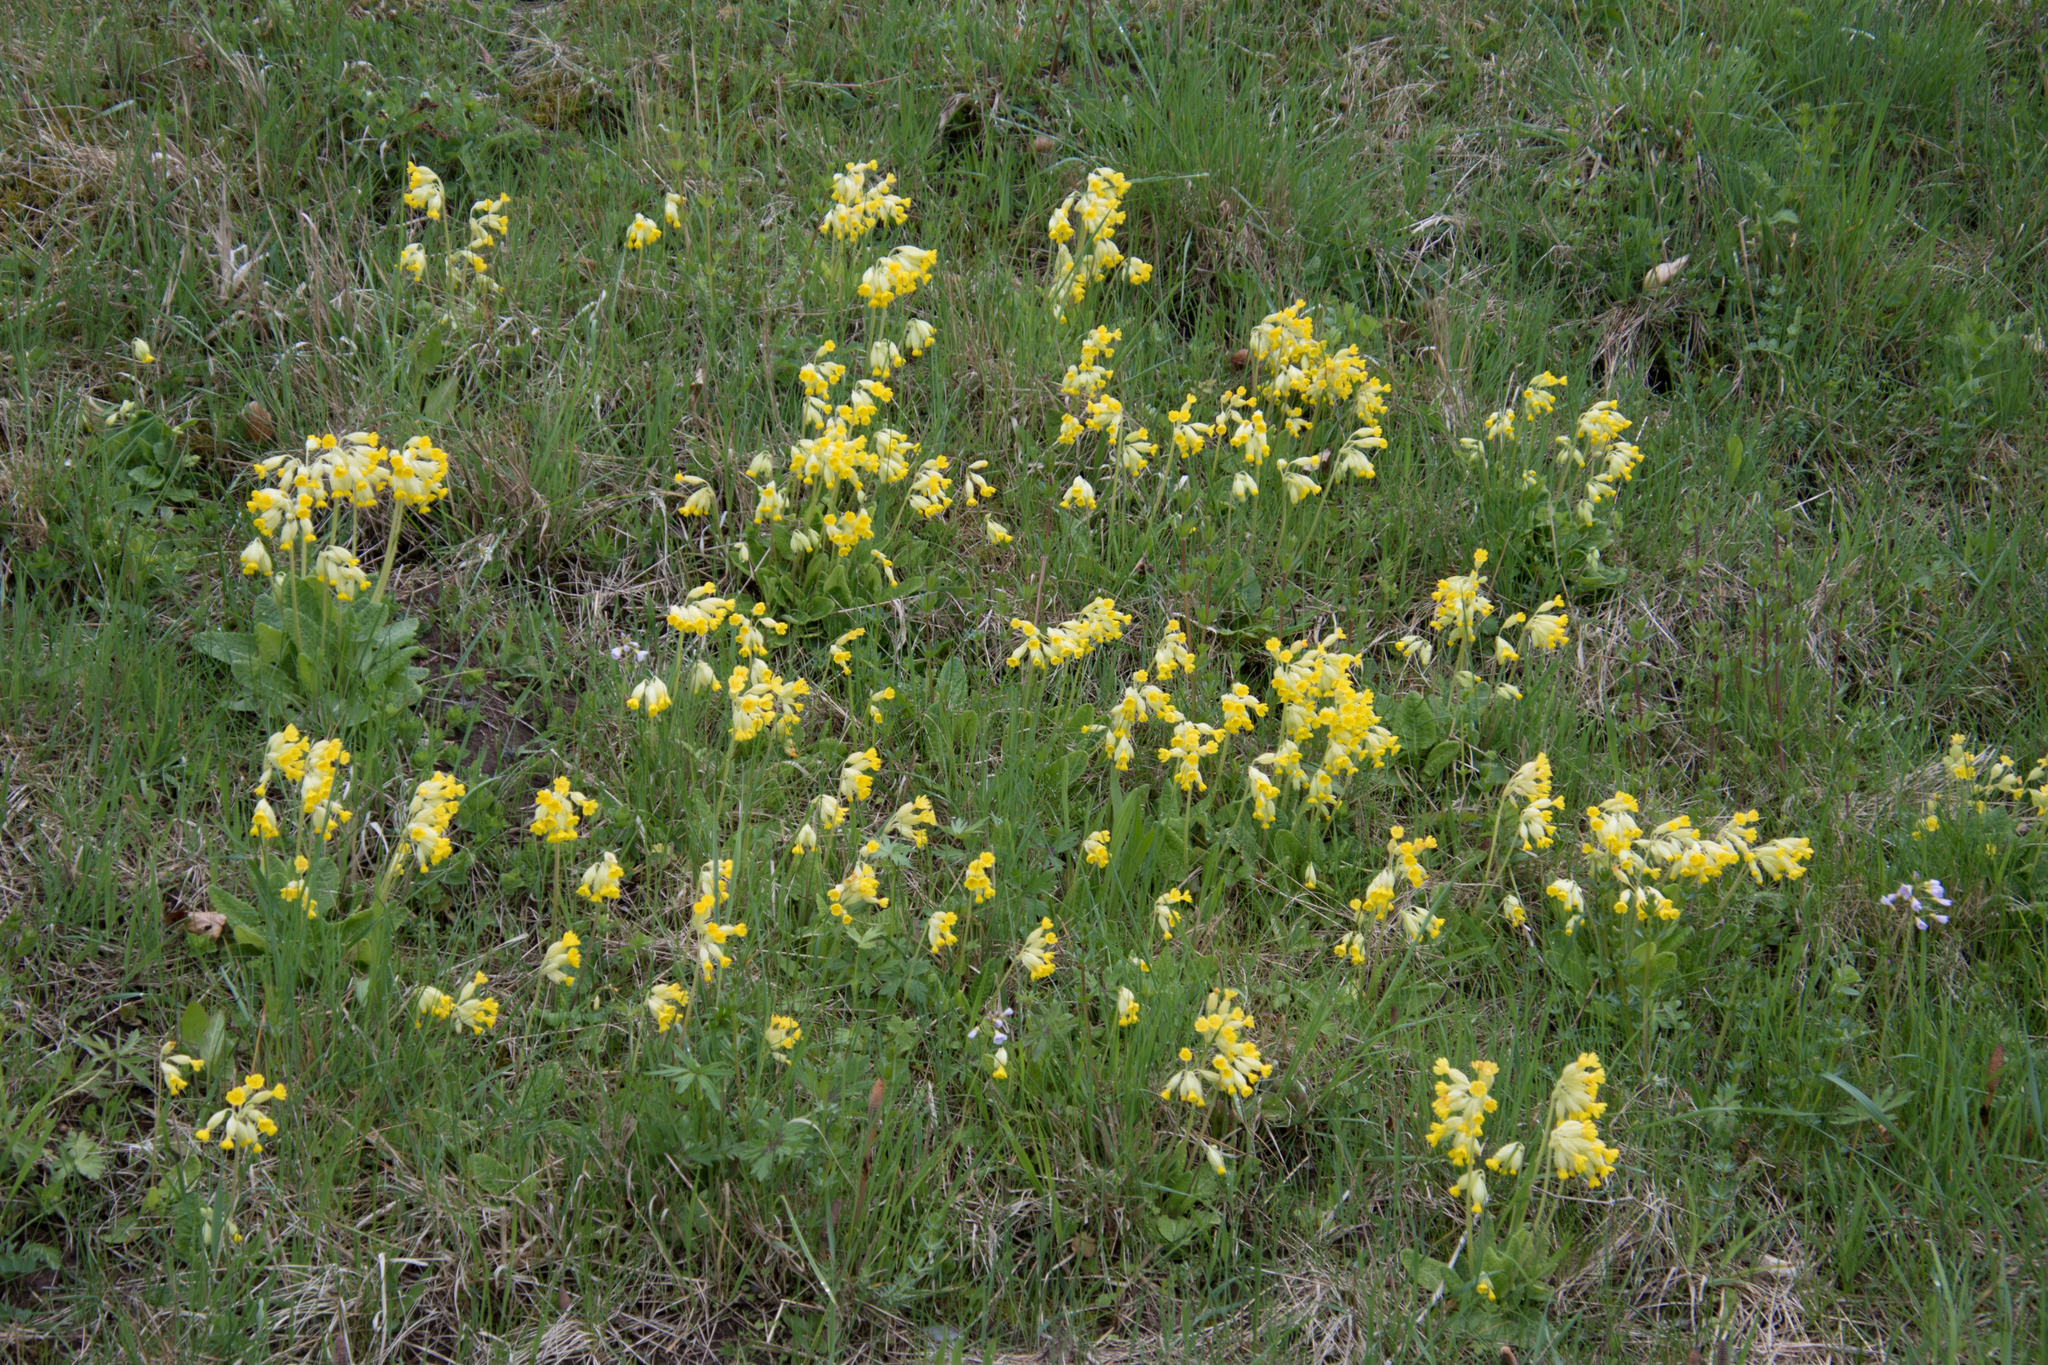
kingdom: Plantae
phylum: Tracheophyta
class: Magnoliopsida
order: Ericales
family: Primulaceae
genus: Primula
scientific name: Primula veris
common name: Cowslip
